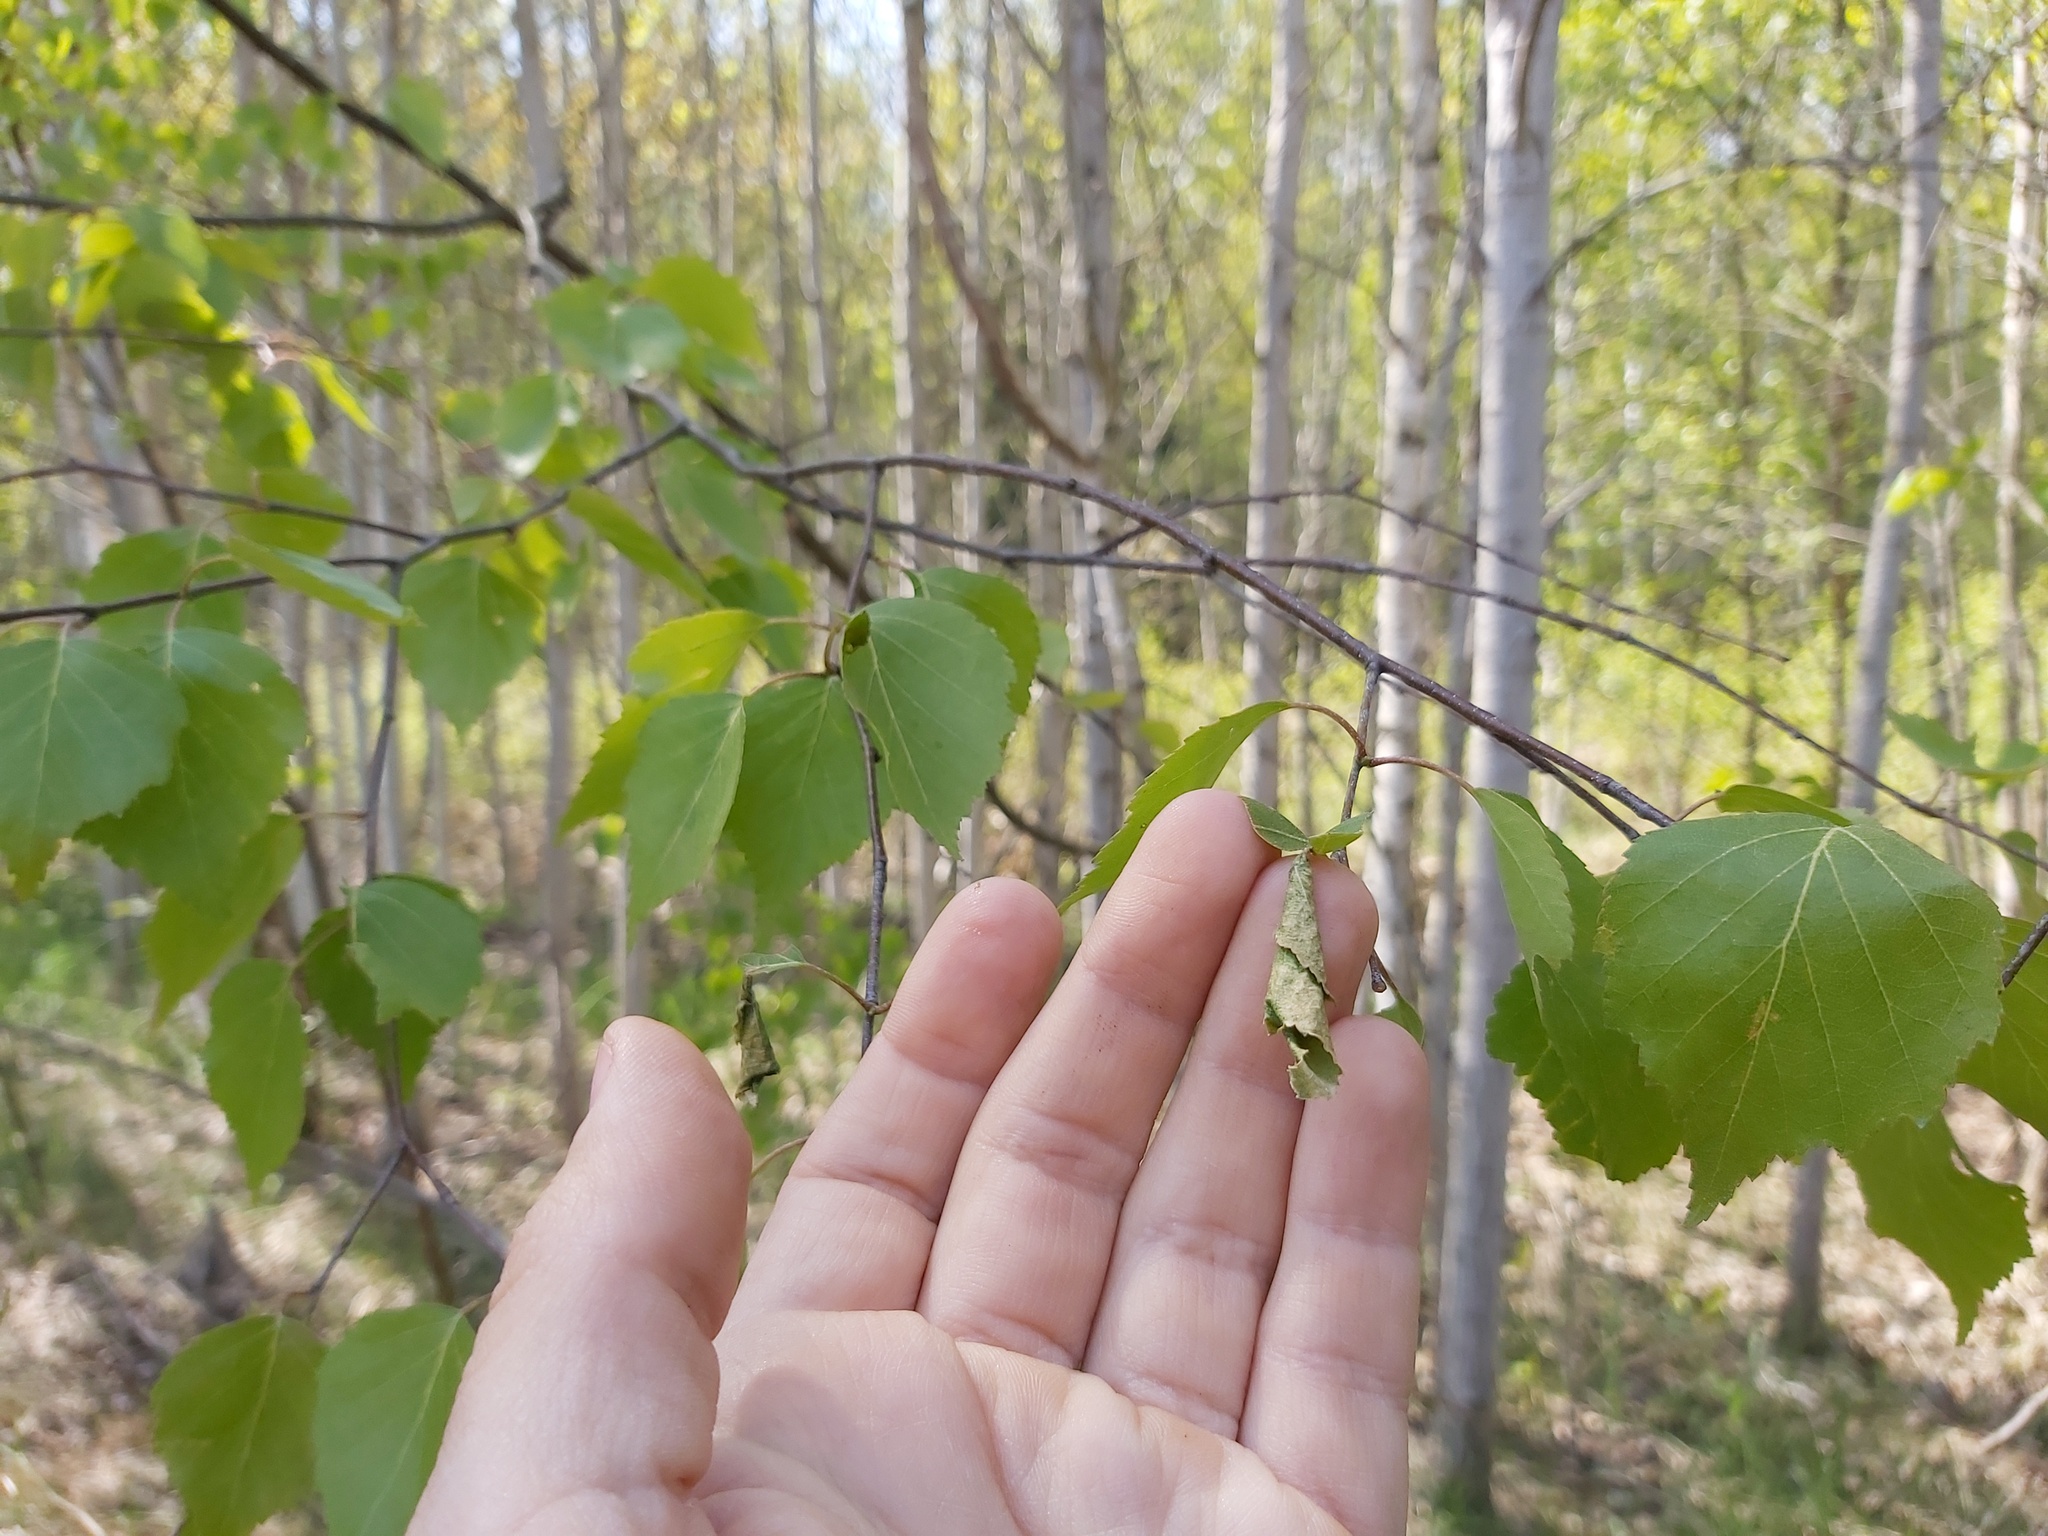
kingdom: Animalia
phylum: Arthropoda
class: Insecta
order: Coleoptera
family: Attelabidae
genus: Deporaus
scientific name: Deporaus betulae
